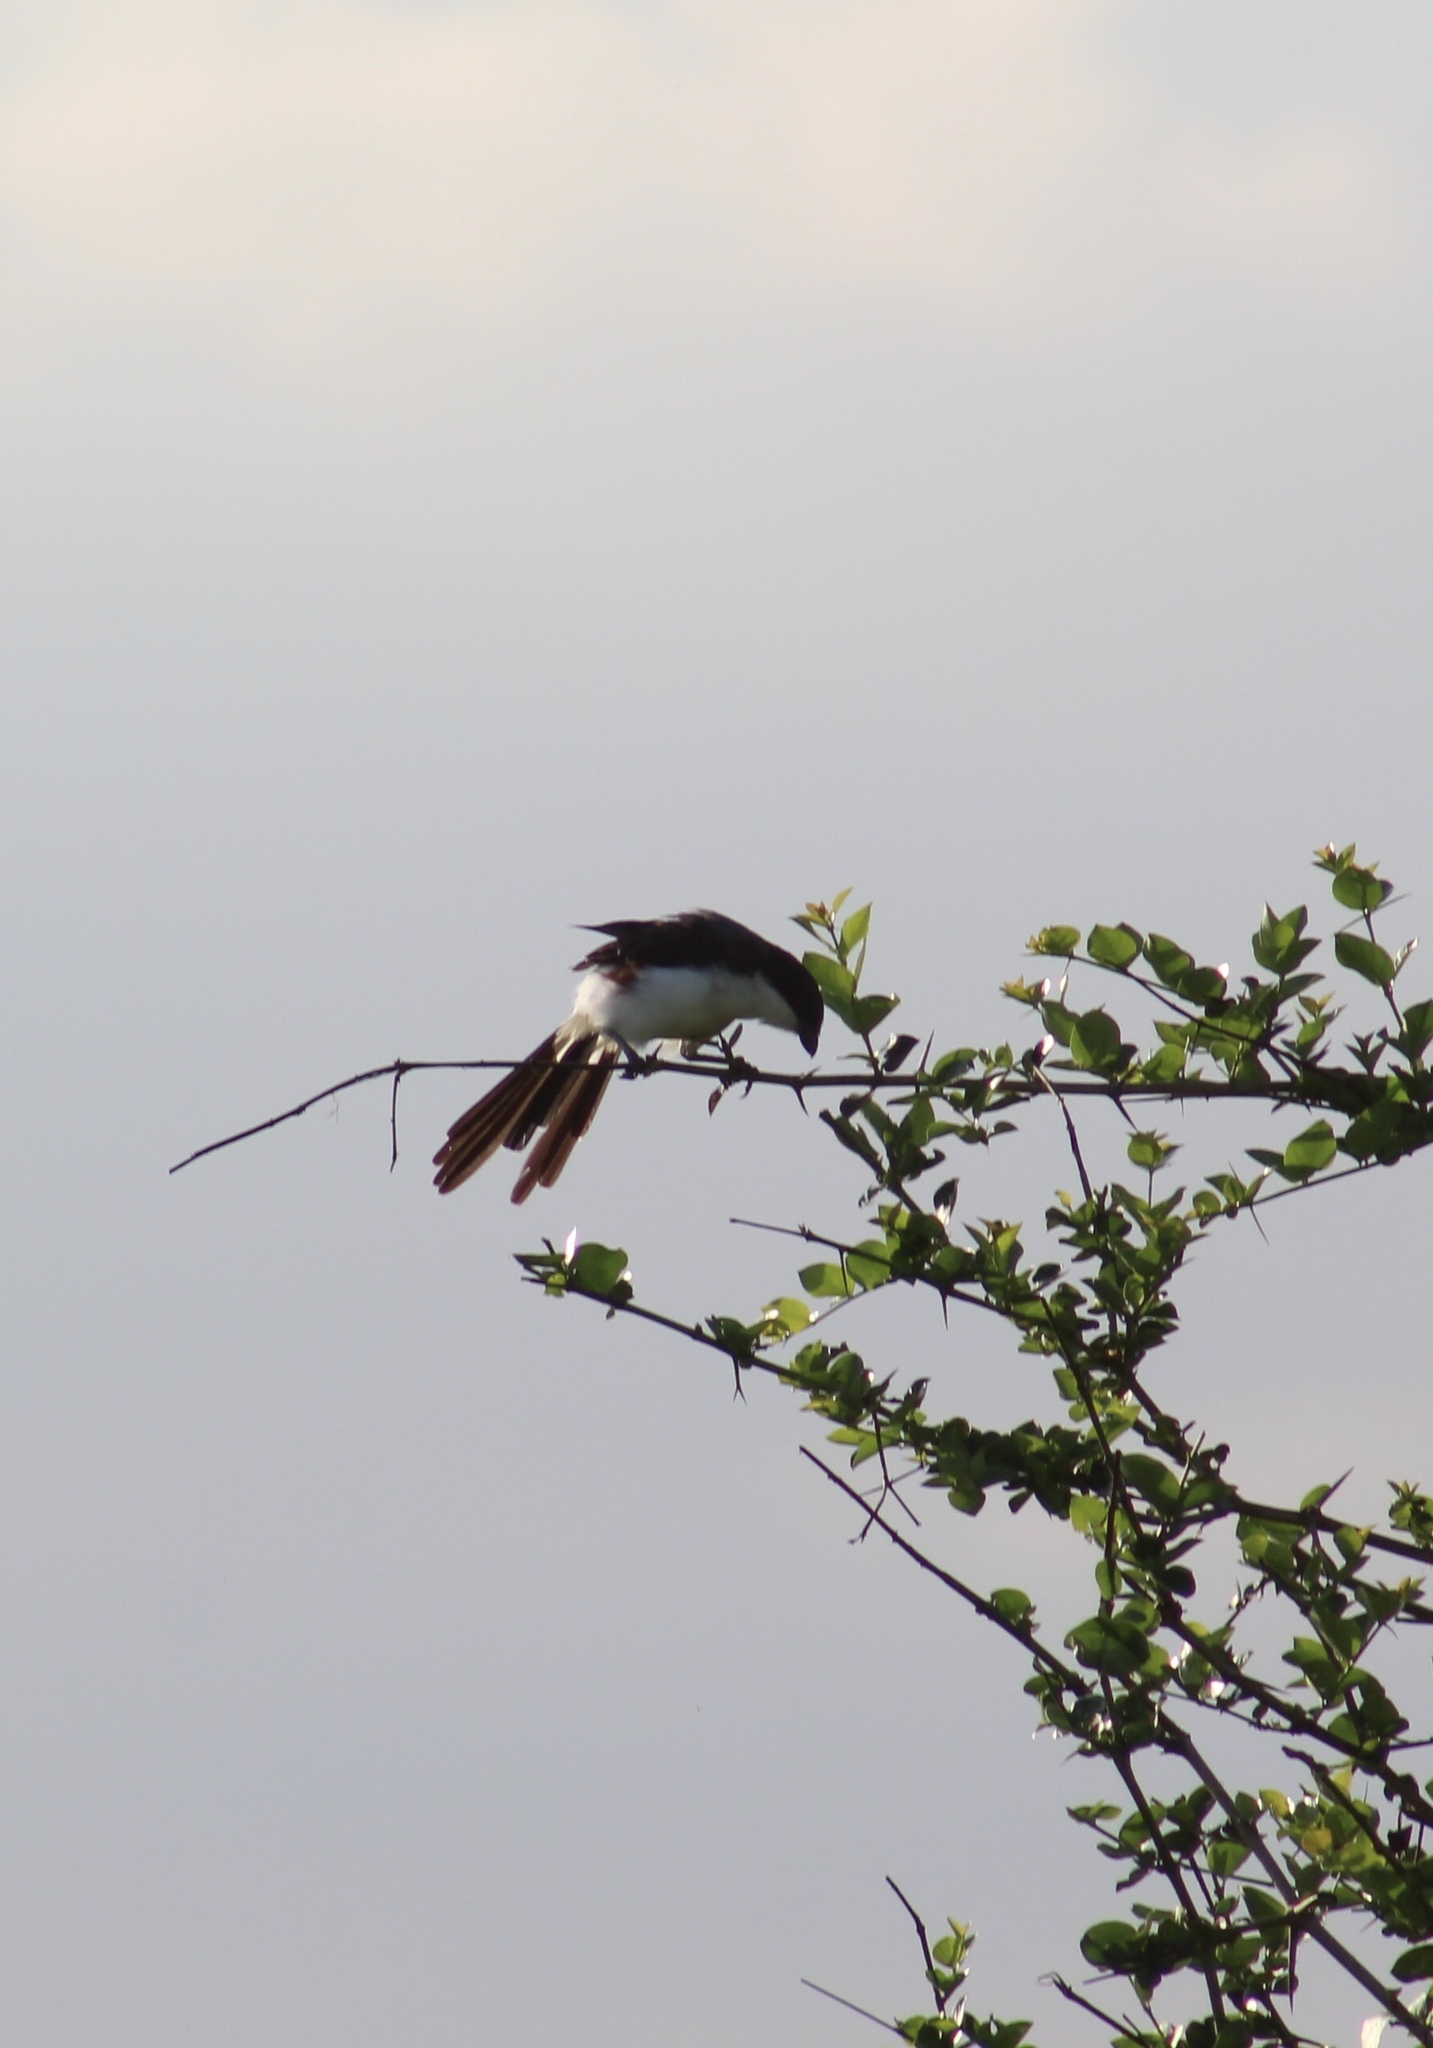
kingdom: Animalia
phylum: Chordata
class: Aves
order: Passeriformes
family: Laniidae
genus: Lanius
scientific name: Lanius cabanisi
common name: Long-tailed fiscal
